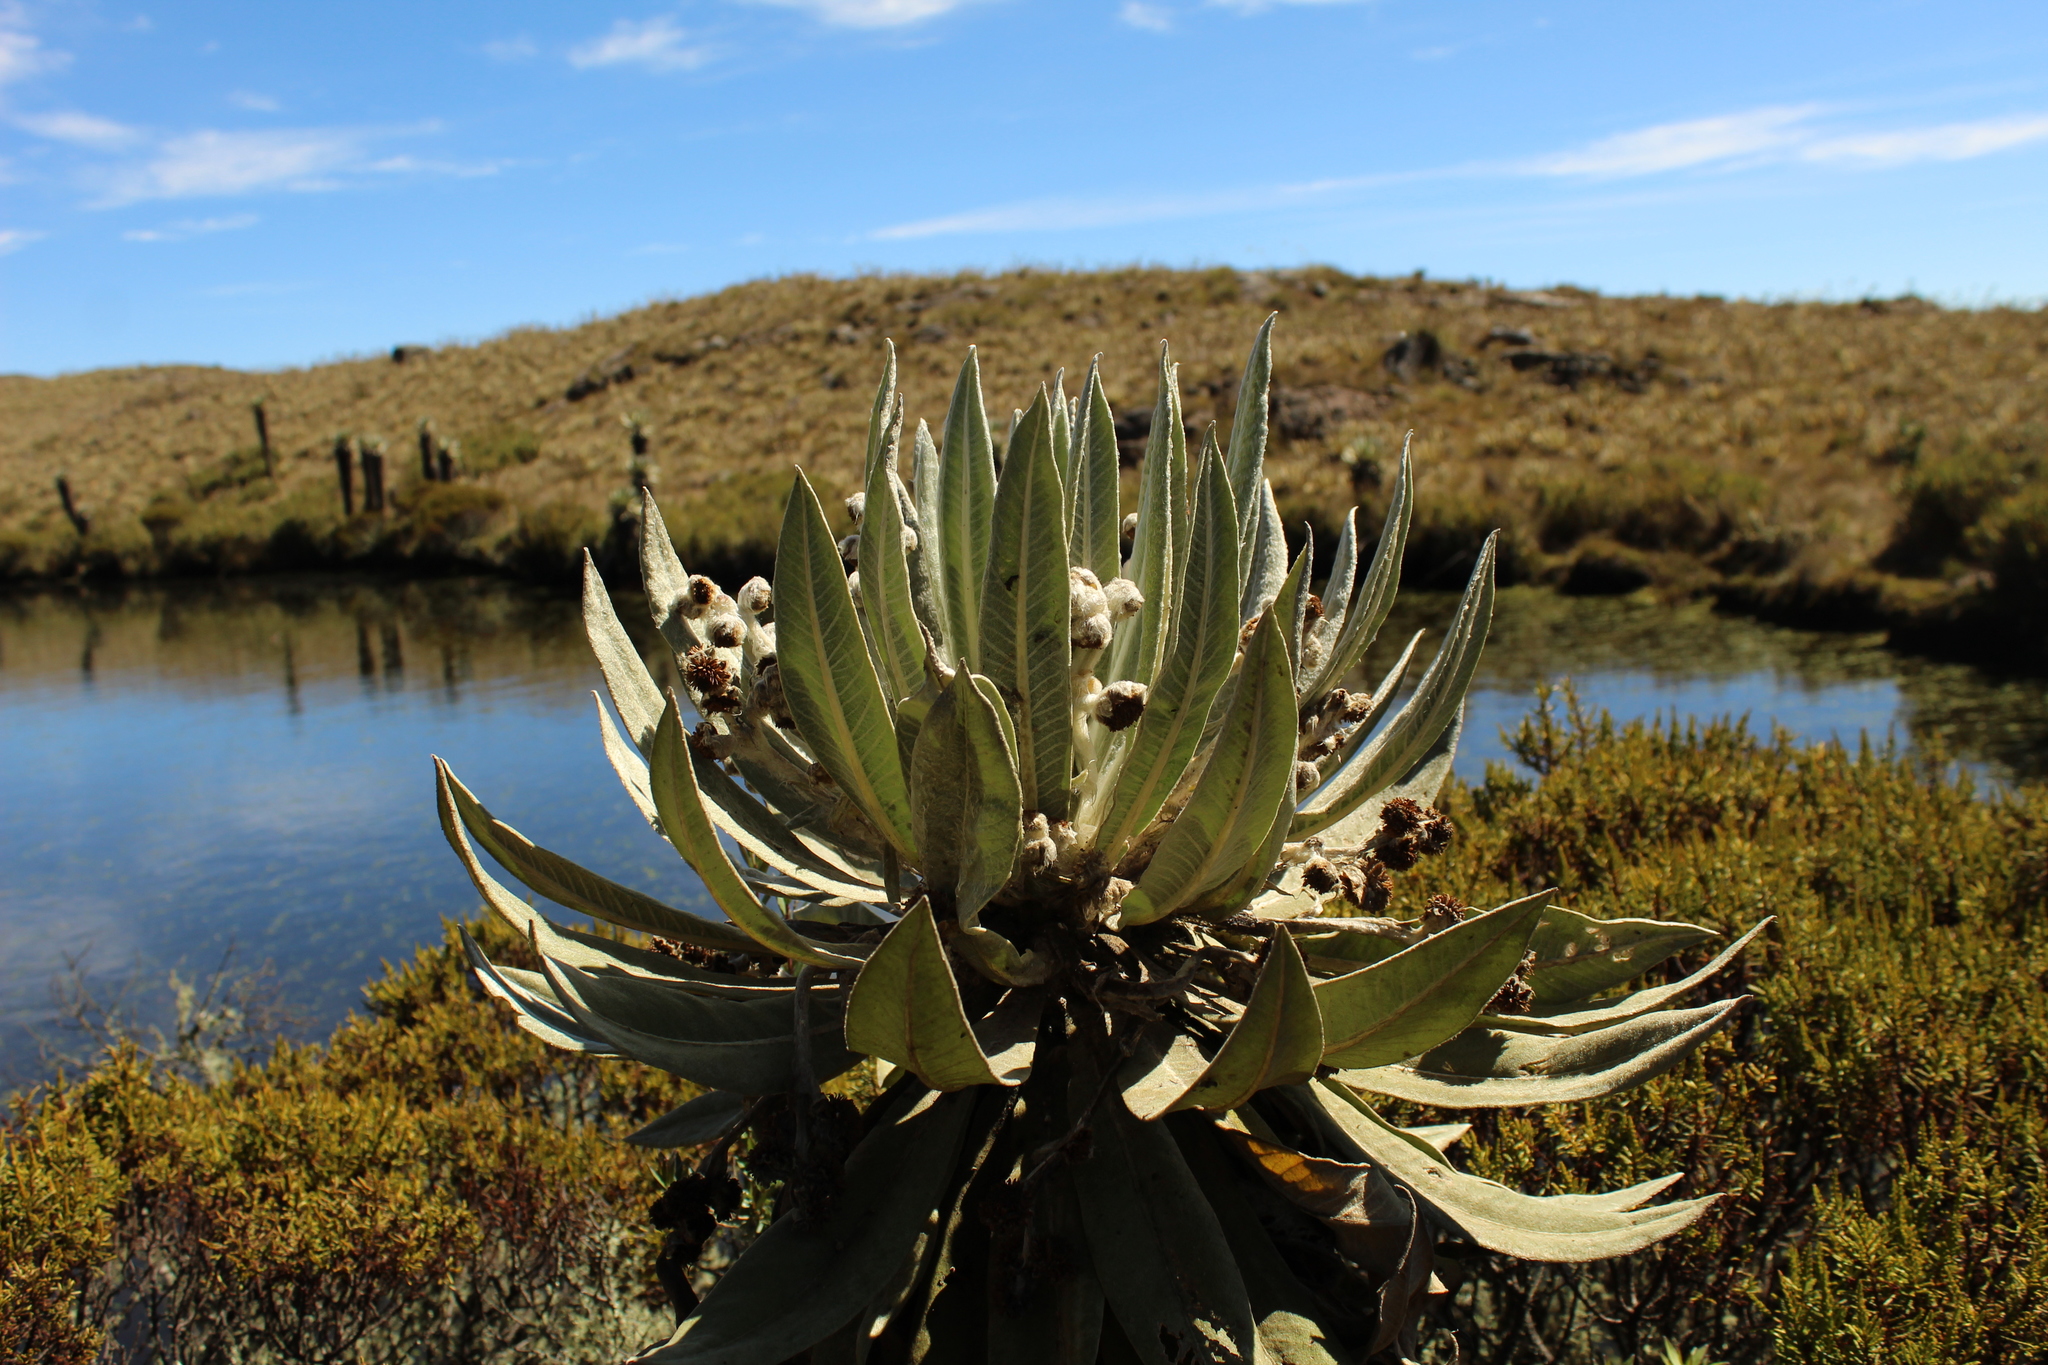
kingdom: Plantae
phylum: Tracheophyta
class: Magnoliopsida
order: Asterales
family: Asteraceae
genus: Espeletia
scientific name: Espeletia brachyaxiantha
